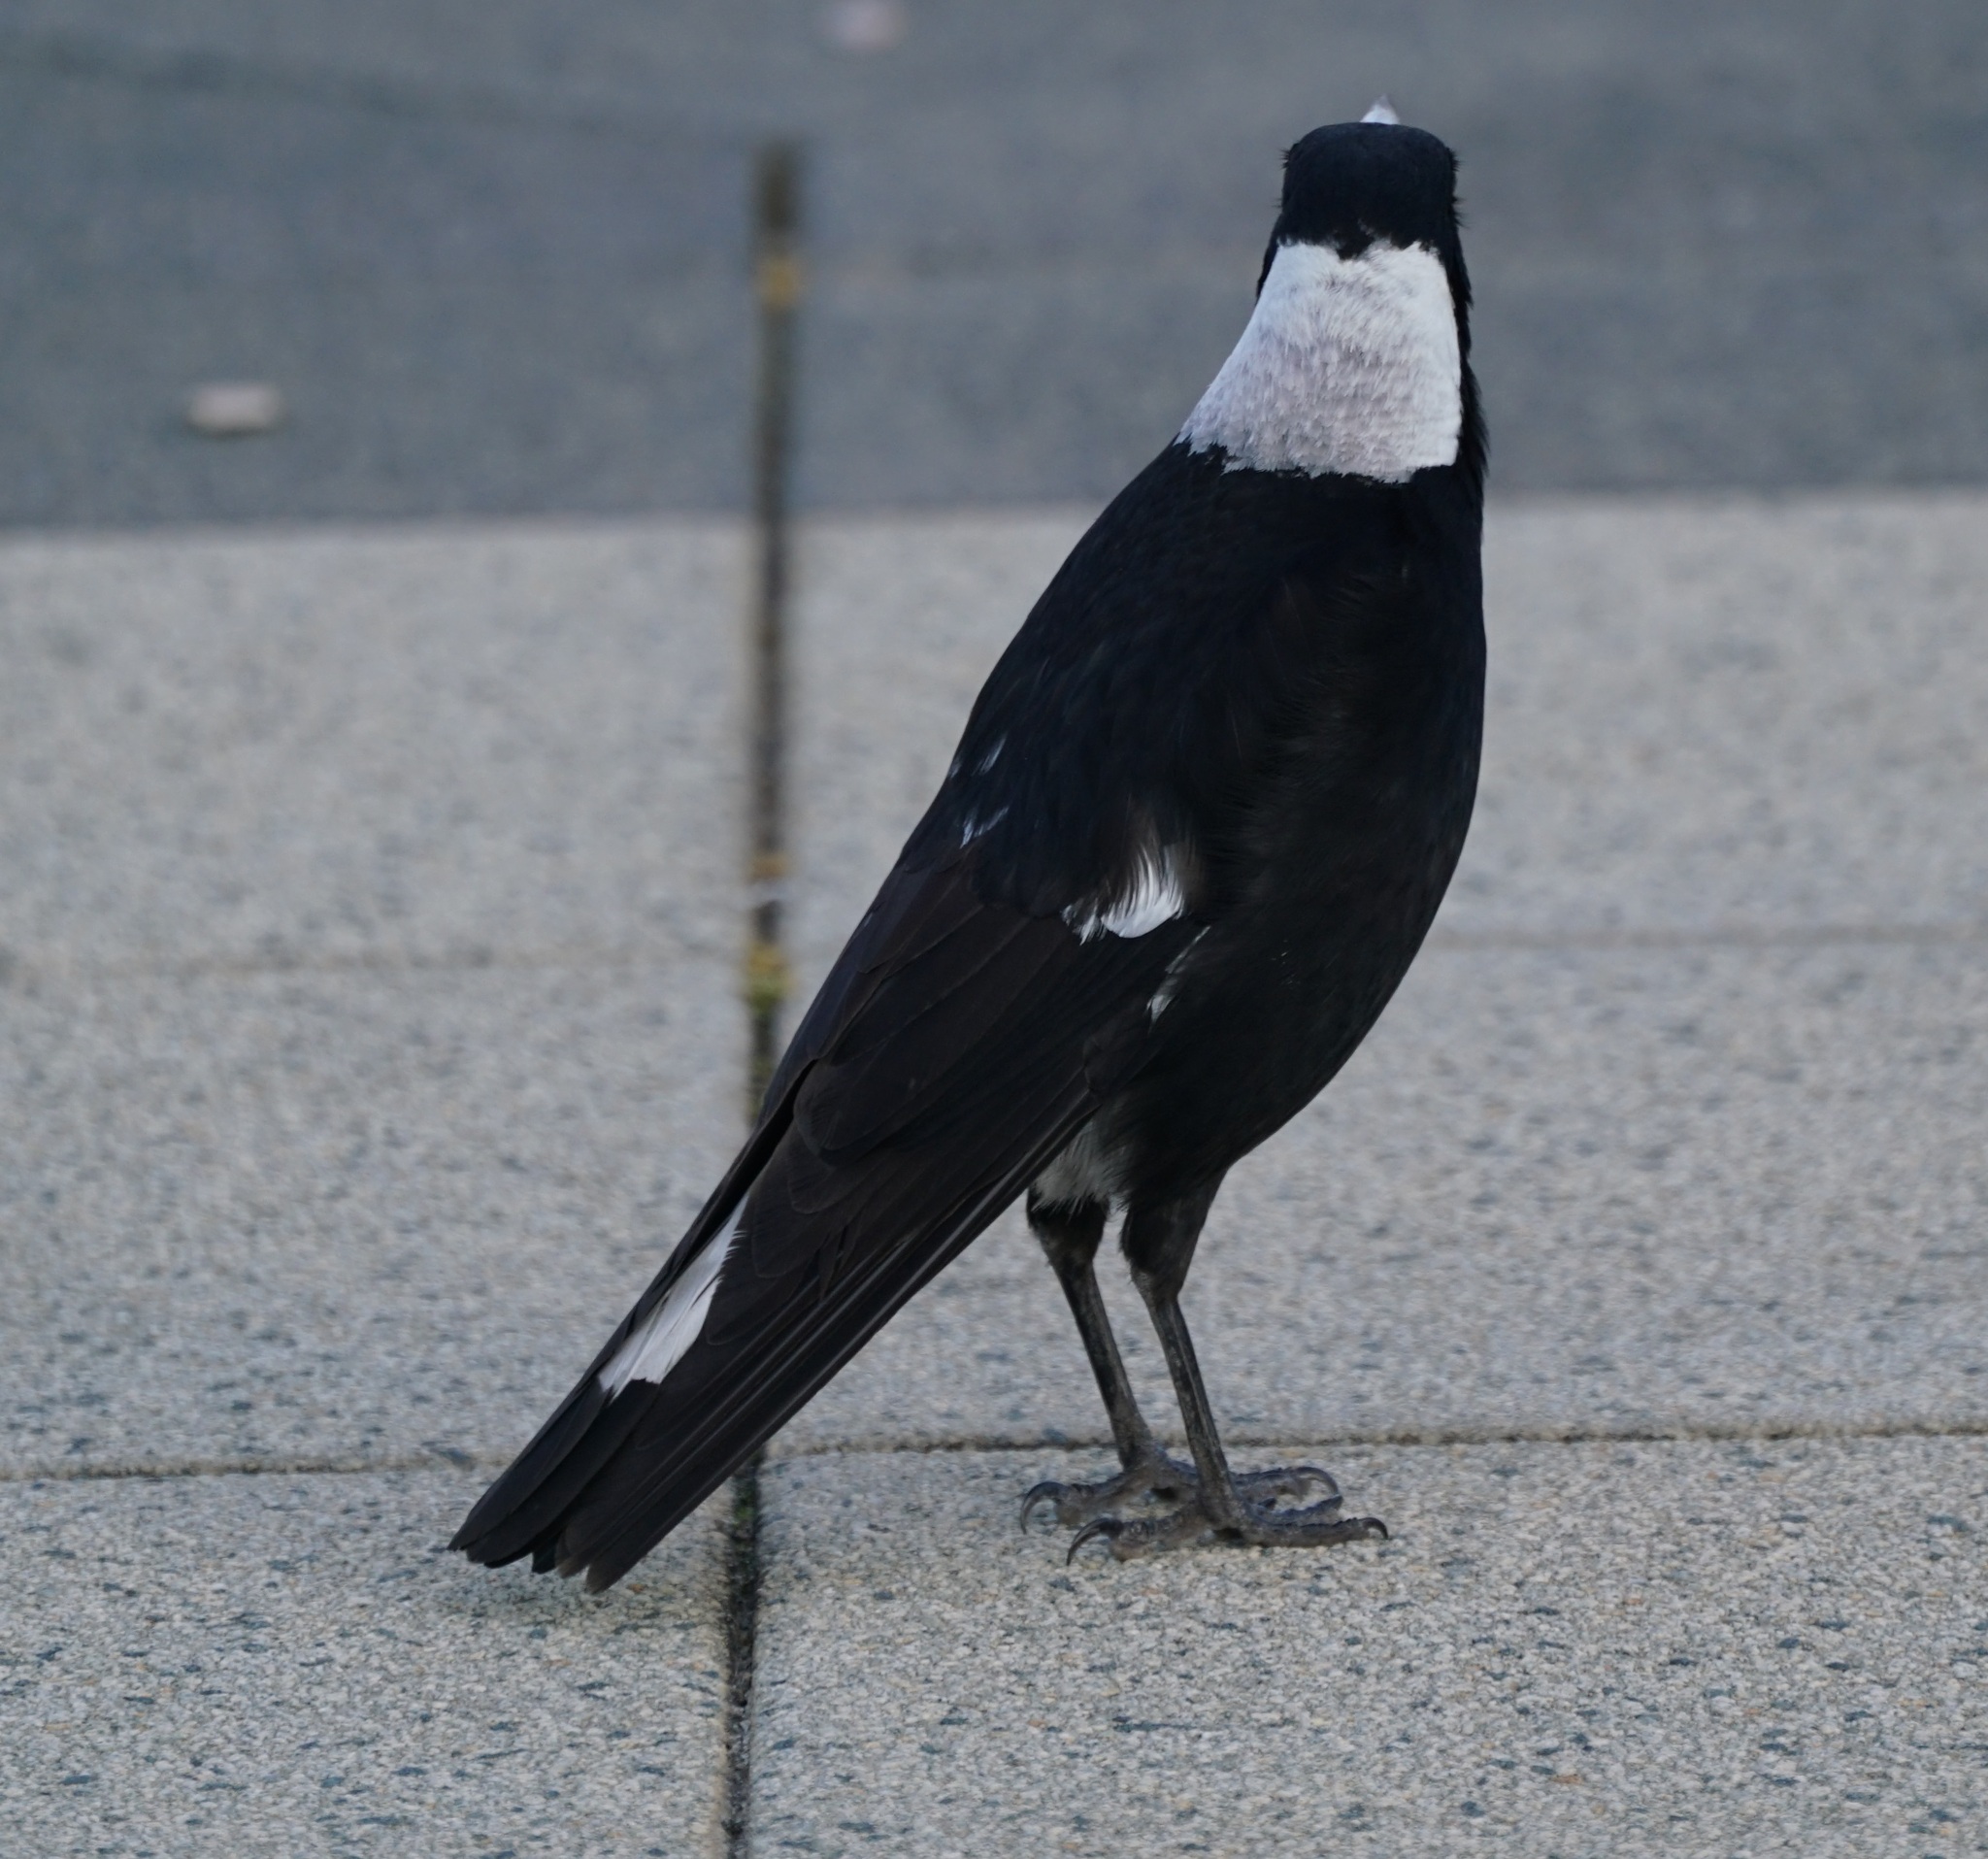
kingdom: Animalia
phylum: Chordata
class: Aves
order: Passeriformes
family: Cracticidae
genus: Gymnorhina
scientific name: Gymnorhina tibicen
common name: Australian magpie
